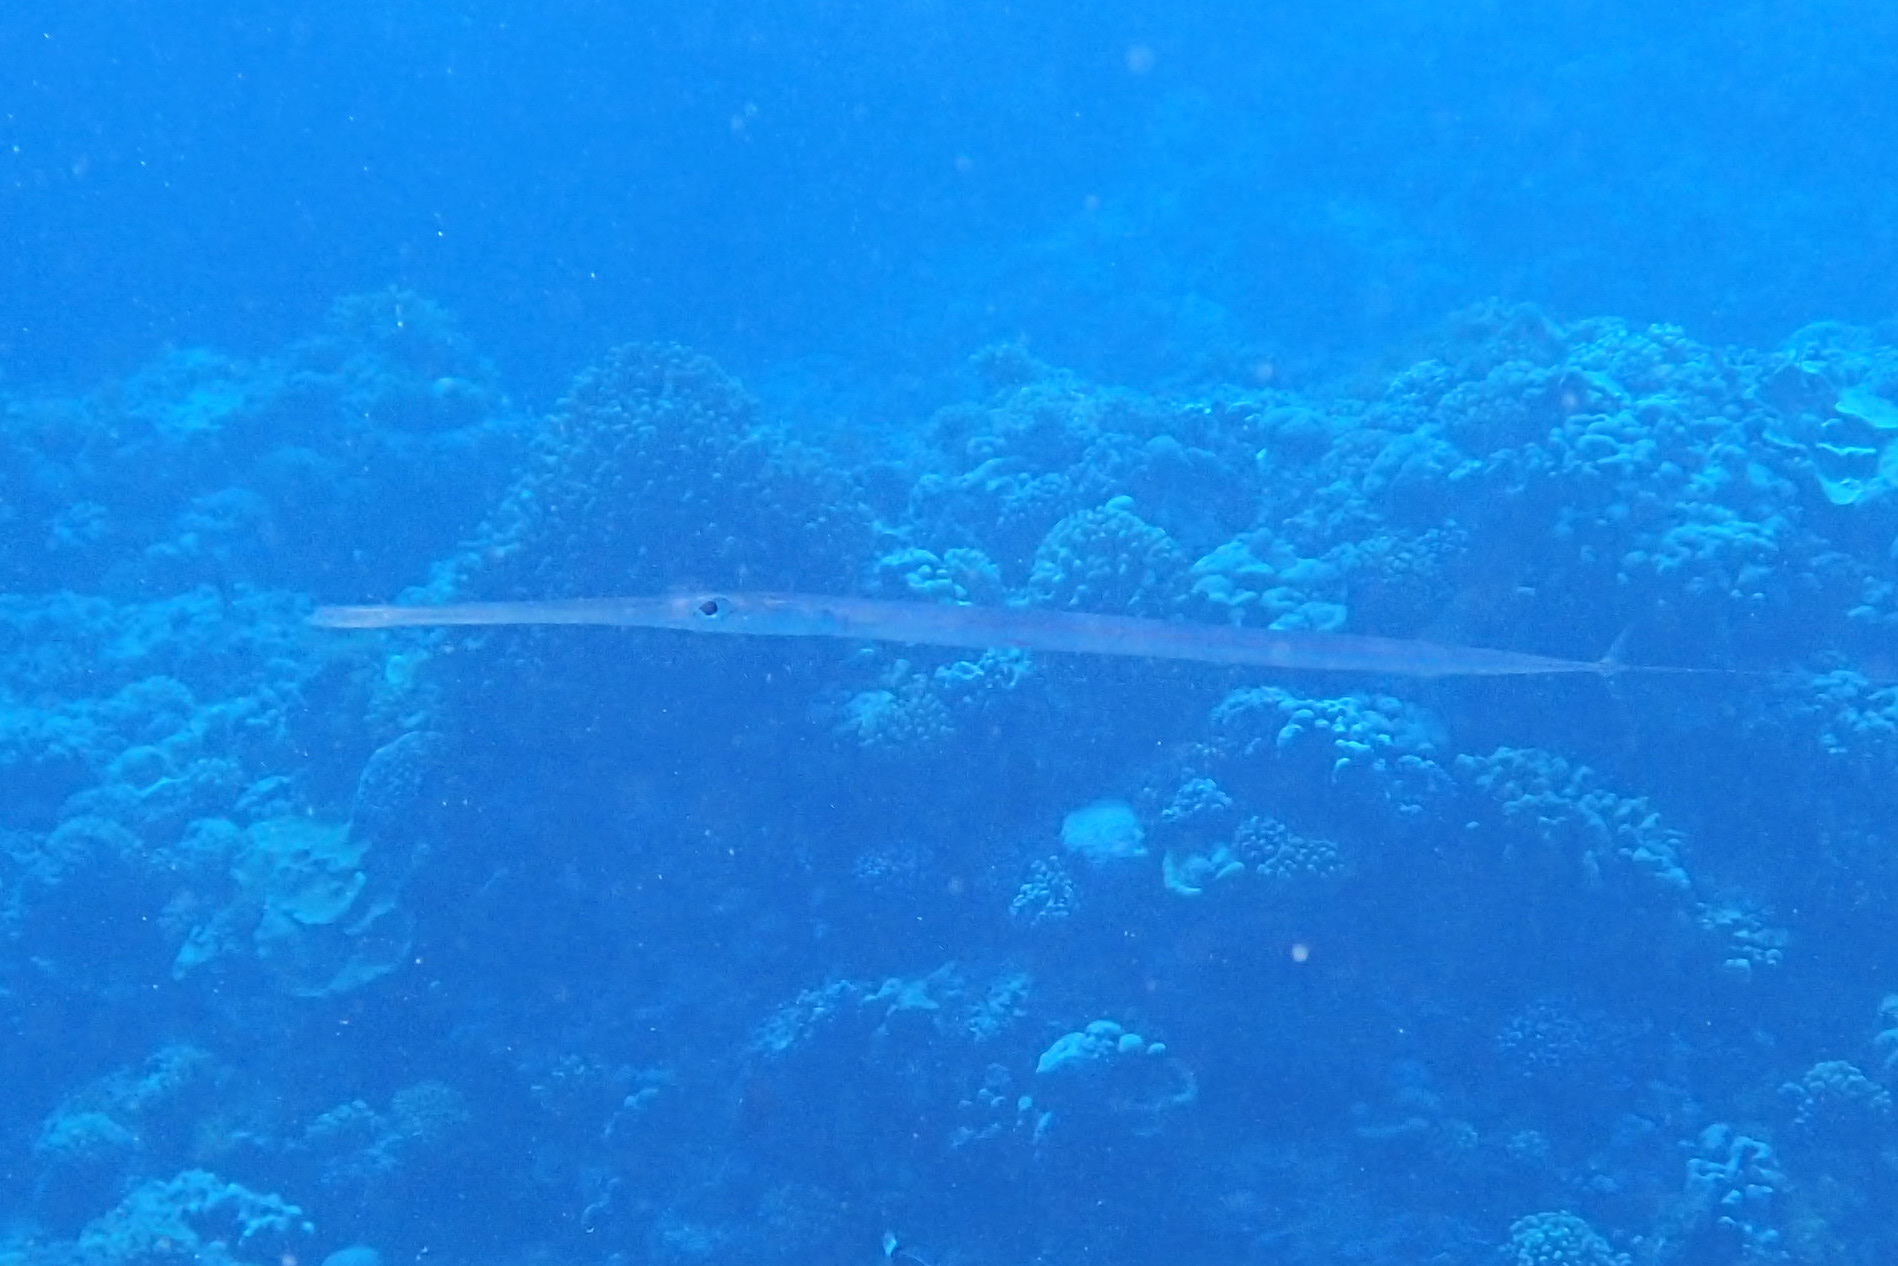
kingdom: Animalia
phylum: Chordata
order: Syngnathiformes
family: Fistulariidae
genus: Fistularia
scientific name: Fistularia commersonii
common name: Bluespotted cornetfish
